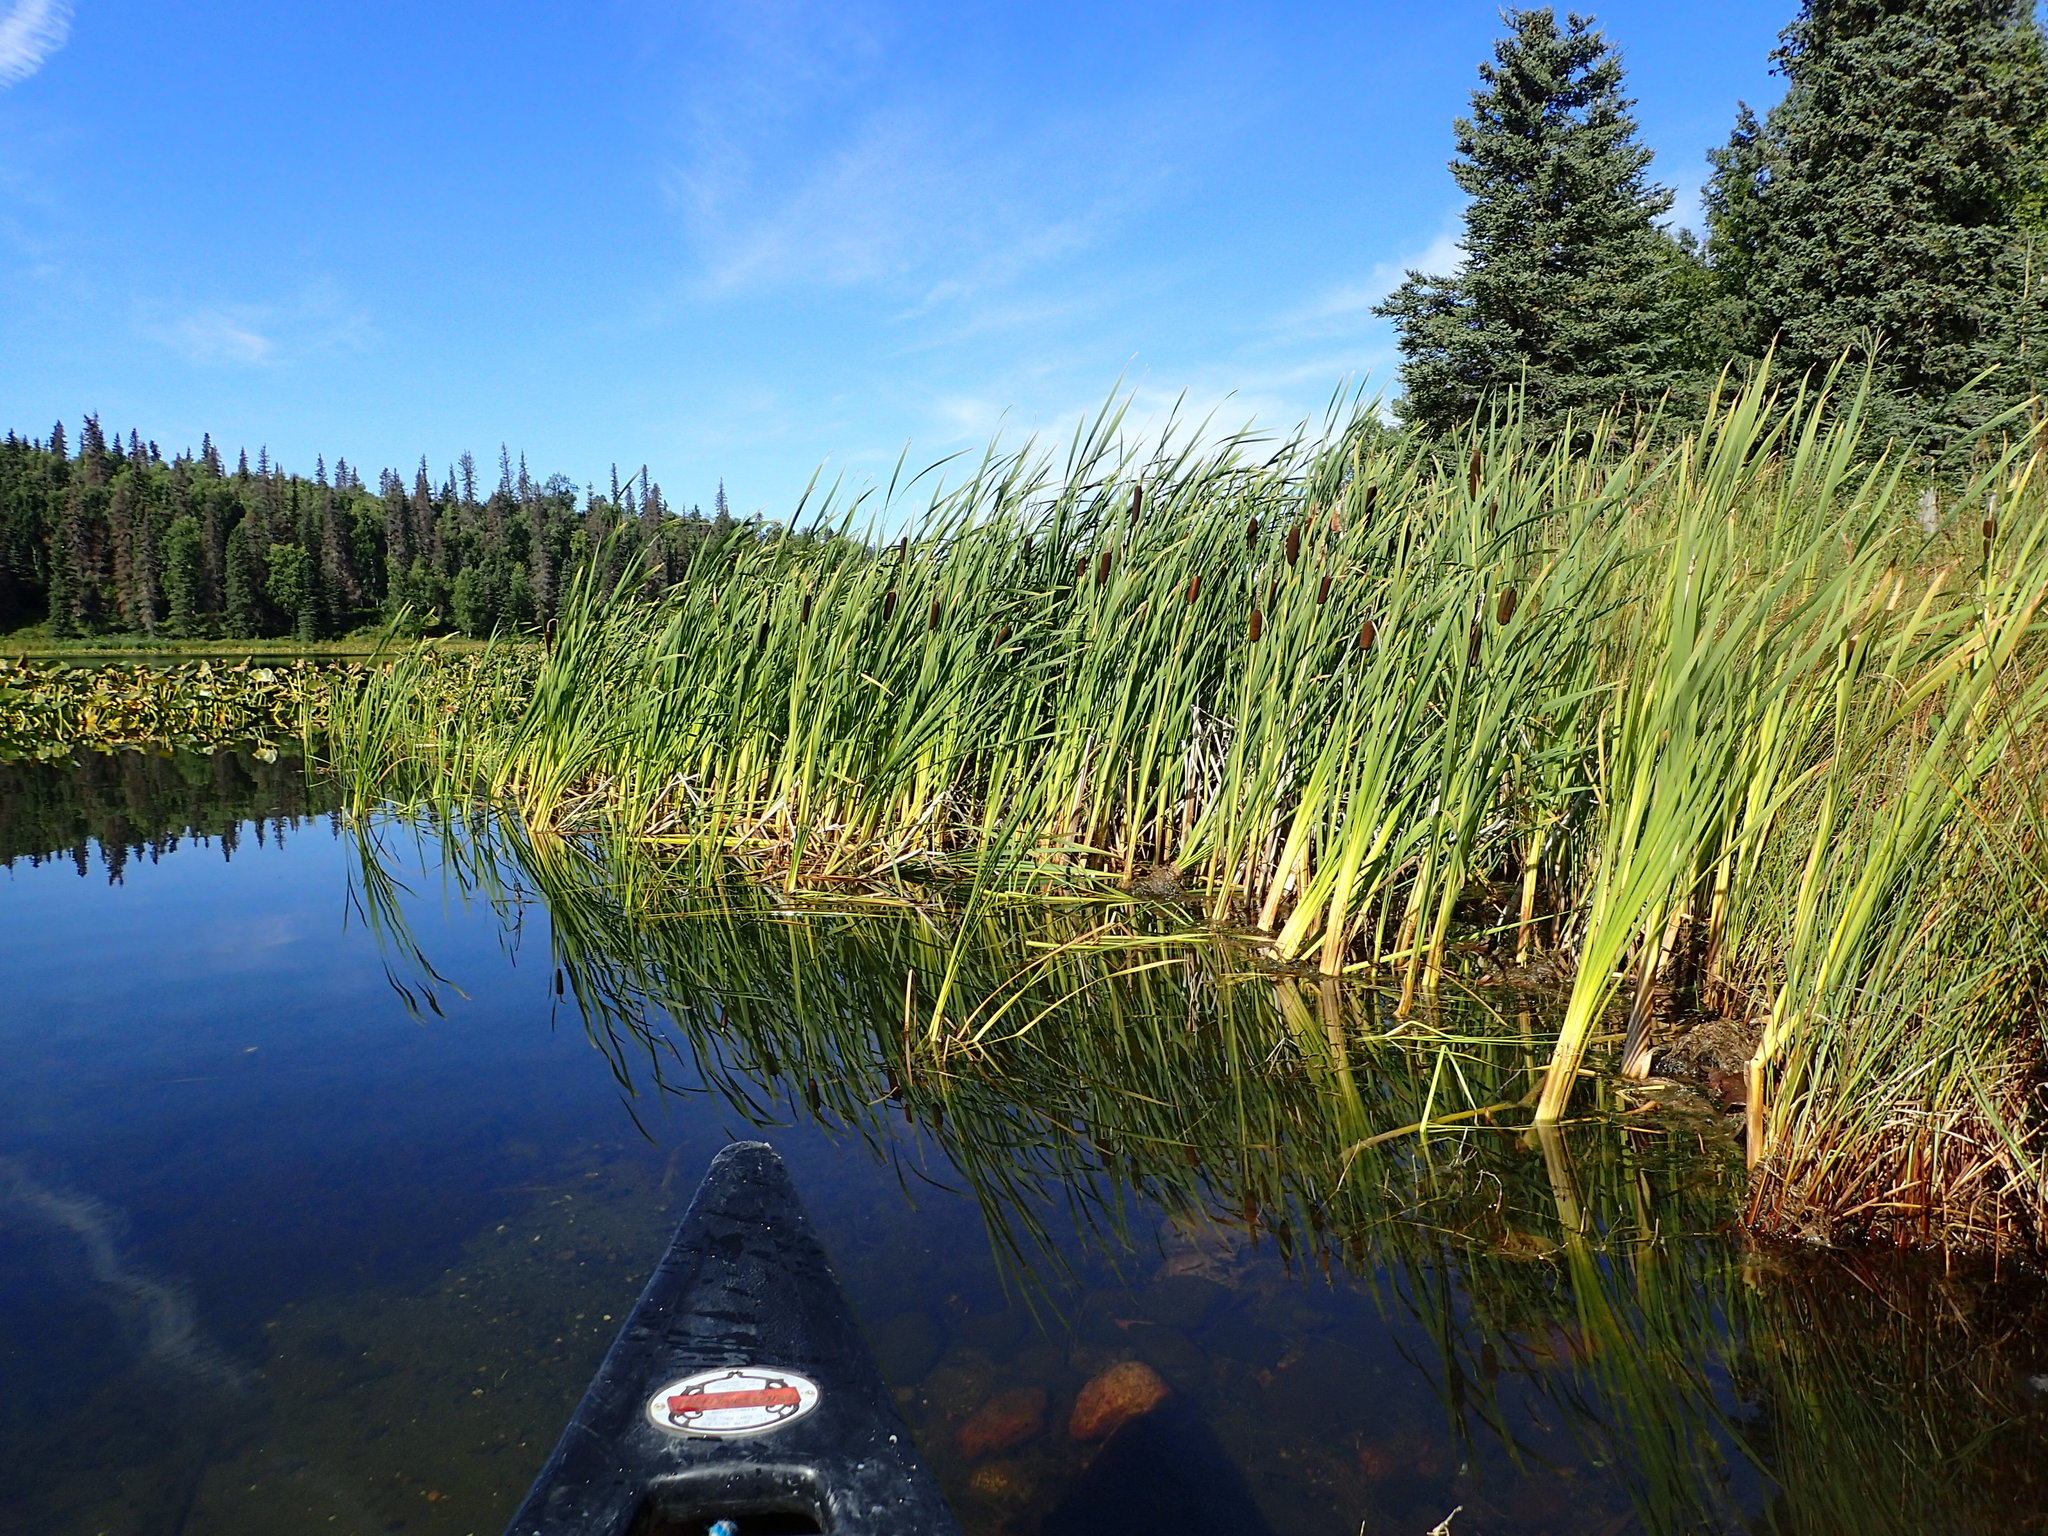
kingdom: Plantae
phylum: Tracheophyta
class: Liliopsida
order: Poales
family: Typhaceae
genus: Typha
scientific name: Typha latifolia
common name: Broadleaf cattail
